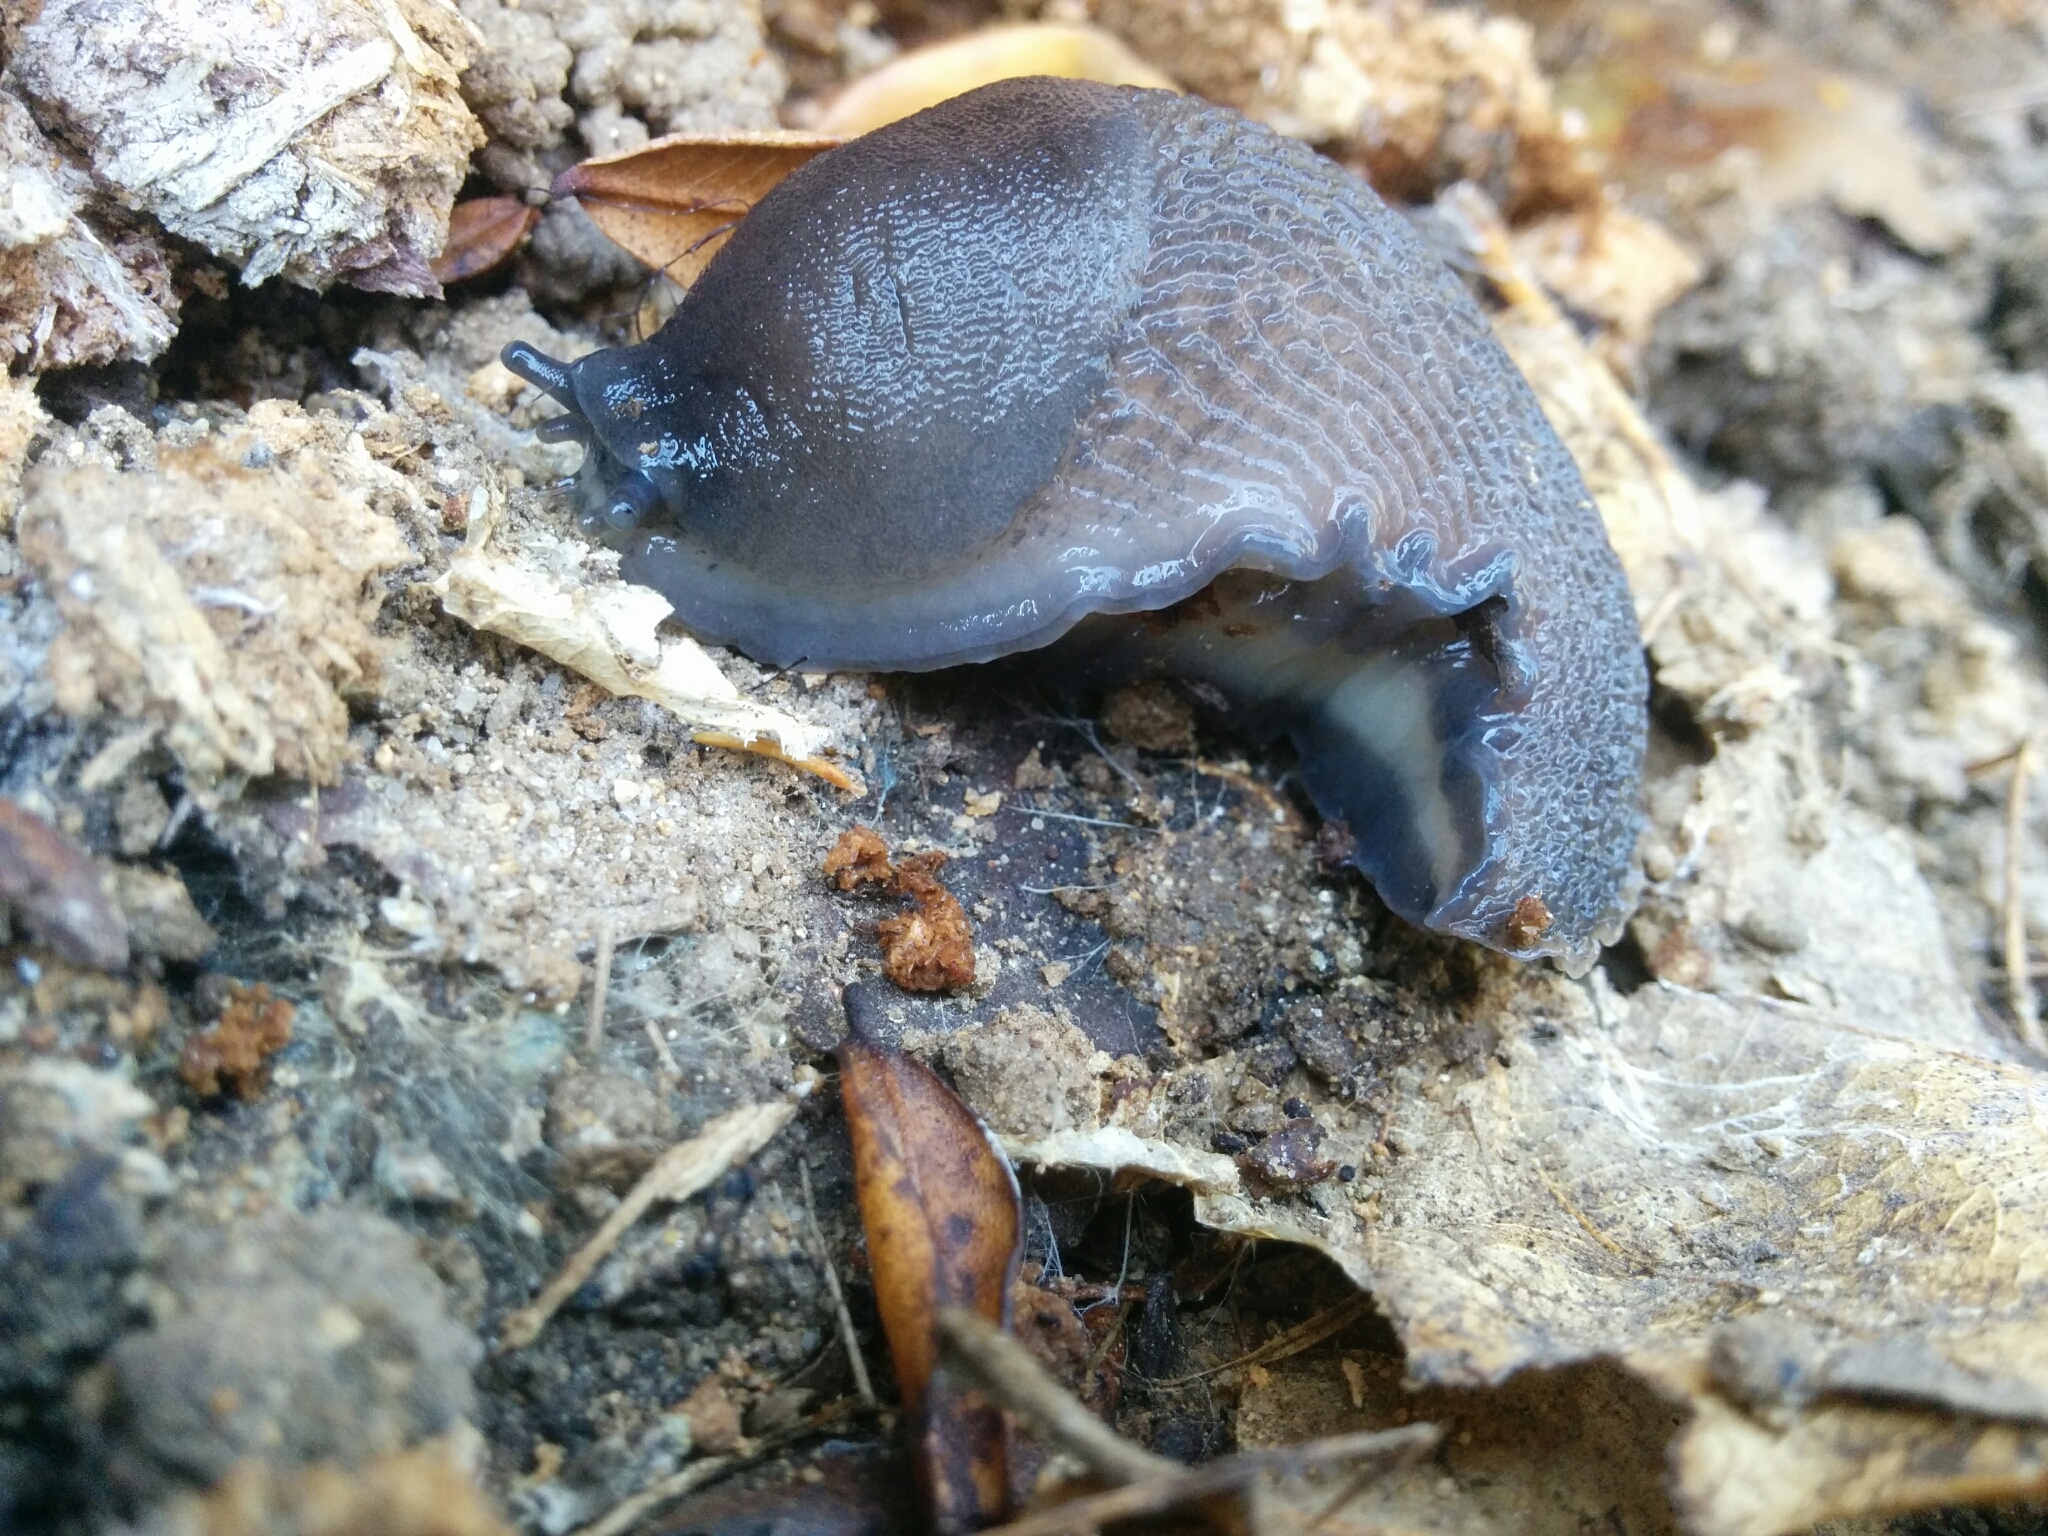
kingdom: Animalia
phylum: Mollusca
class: Gastropoda
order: Stylommatophora
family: Limacidae
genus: Limax
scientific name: Limax cinereoniger
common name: Ash-black slug
